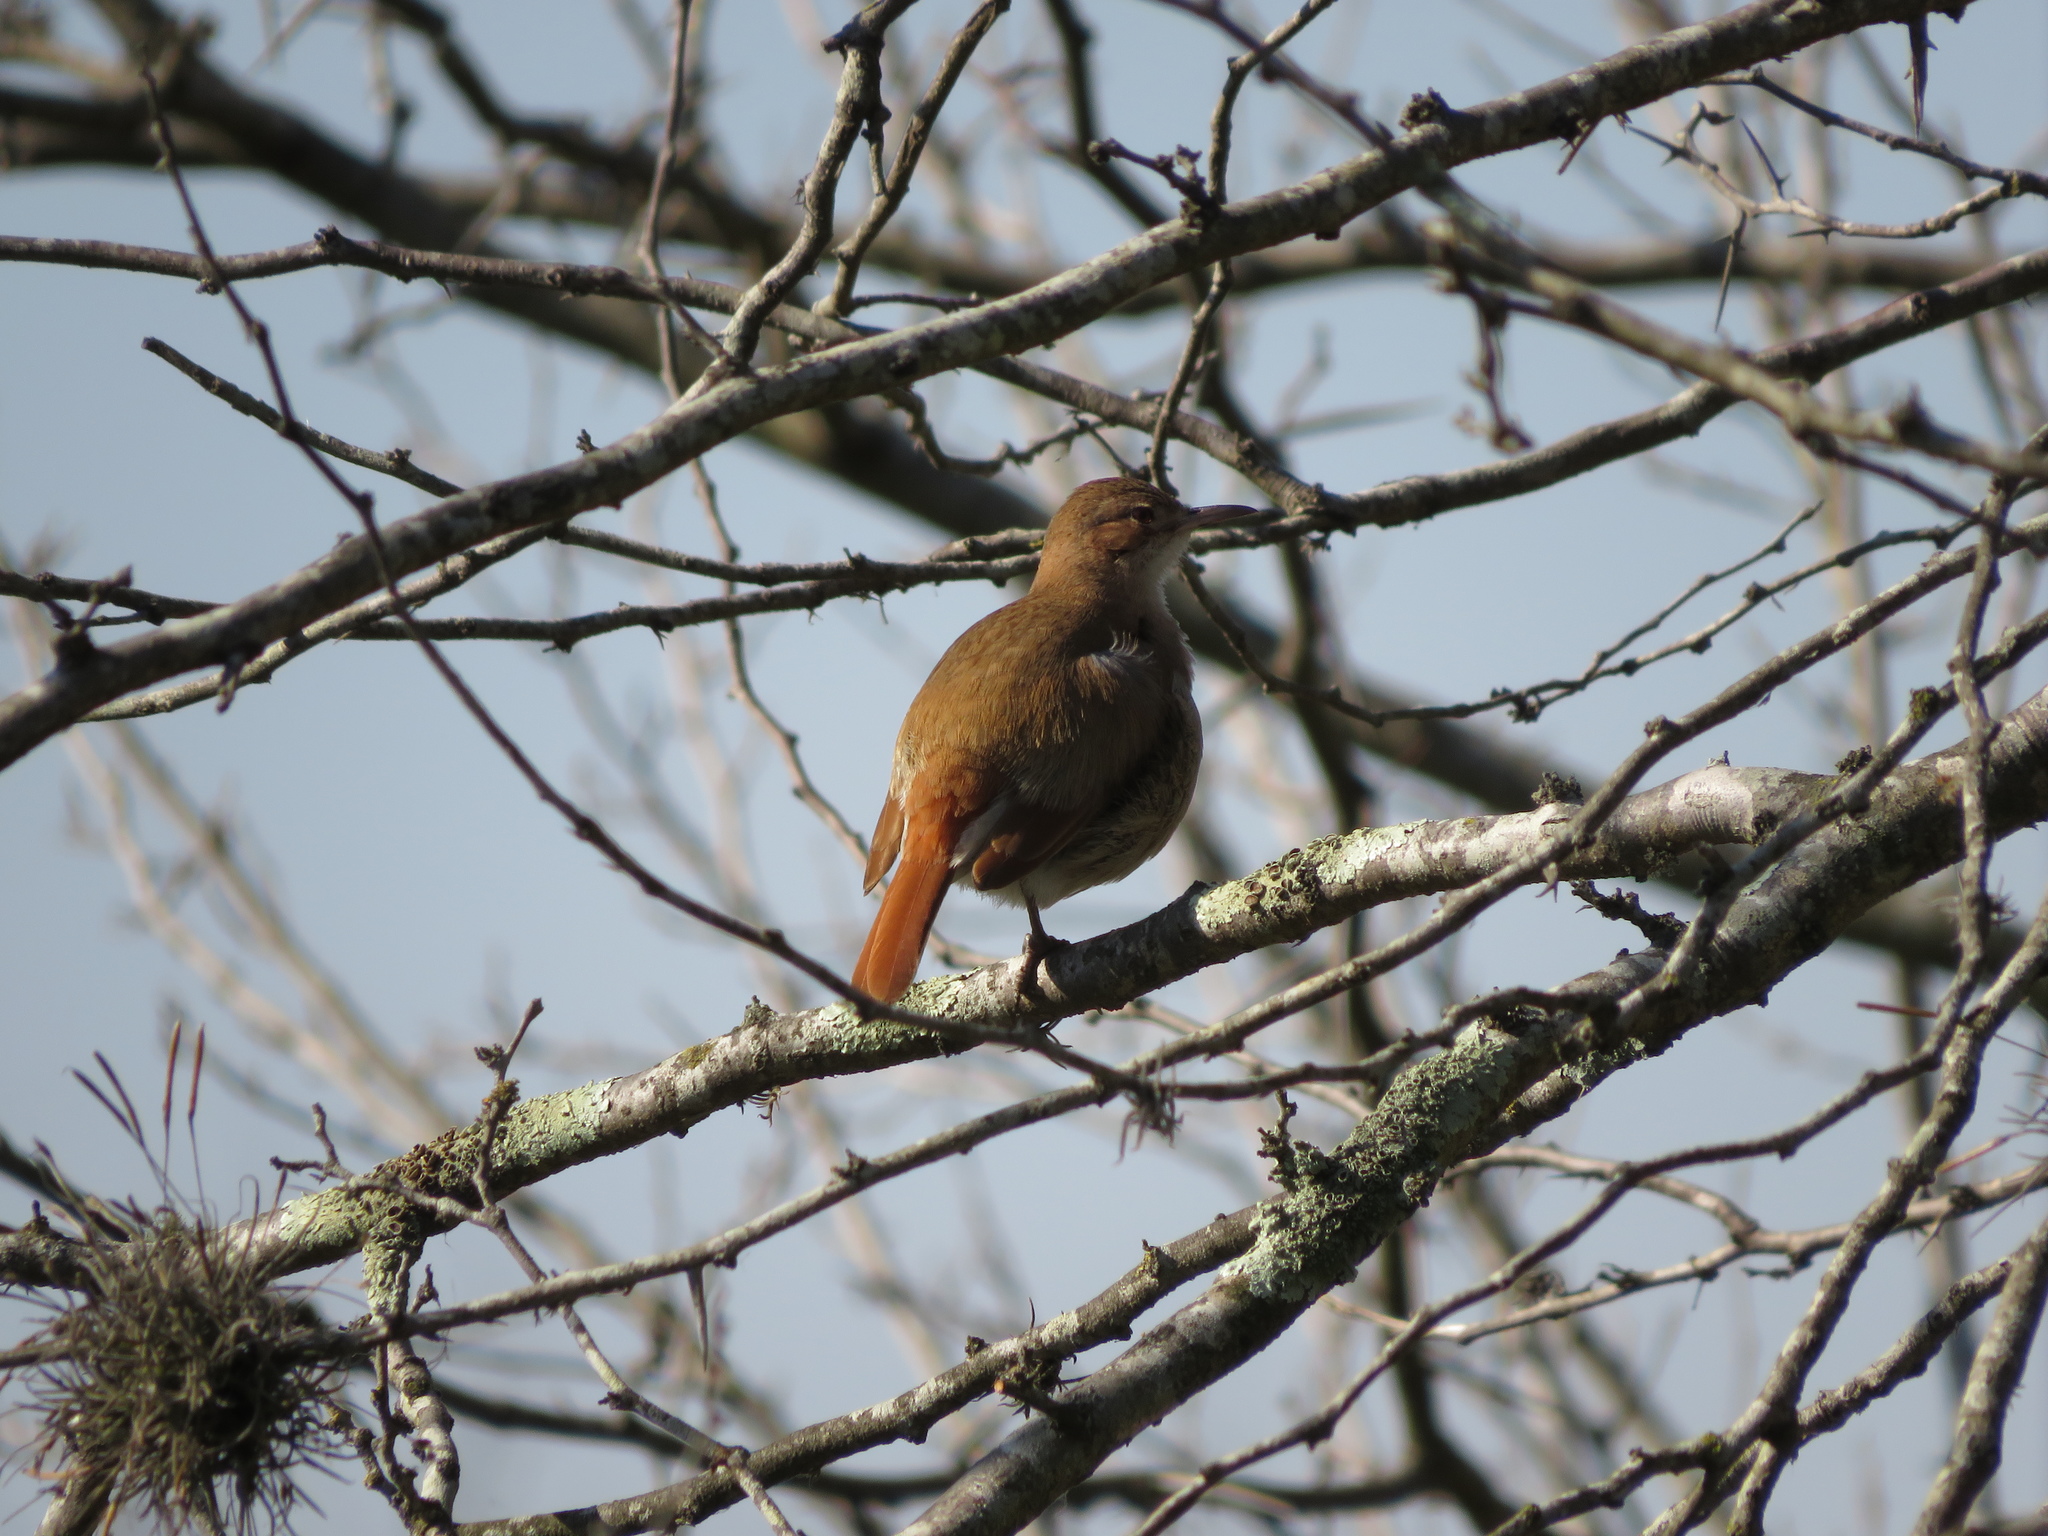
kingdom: Animalia
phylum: Chordata
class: Aves
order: Passeriformes
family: Furnariidae
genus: Furnarius
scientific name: Furnarius rufus
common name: Rufous hornero
